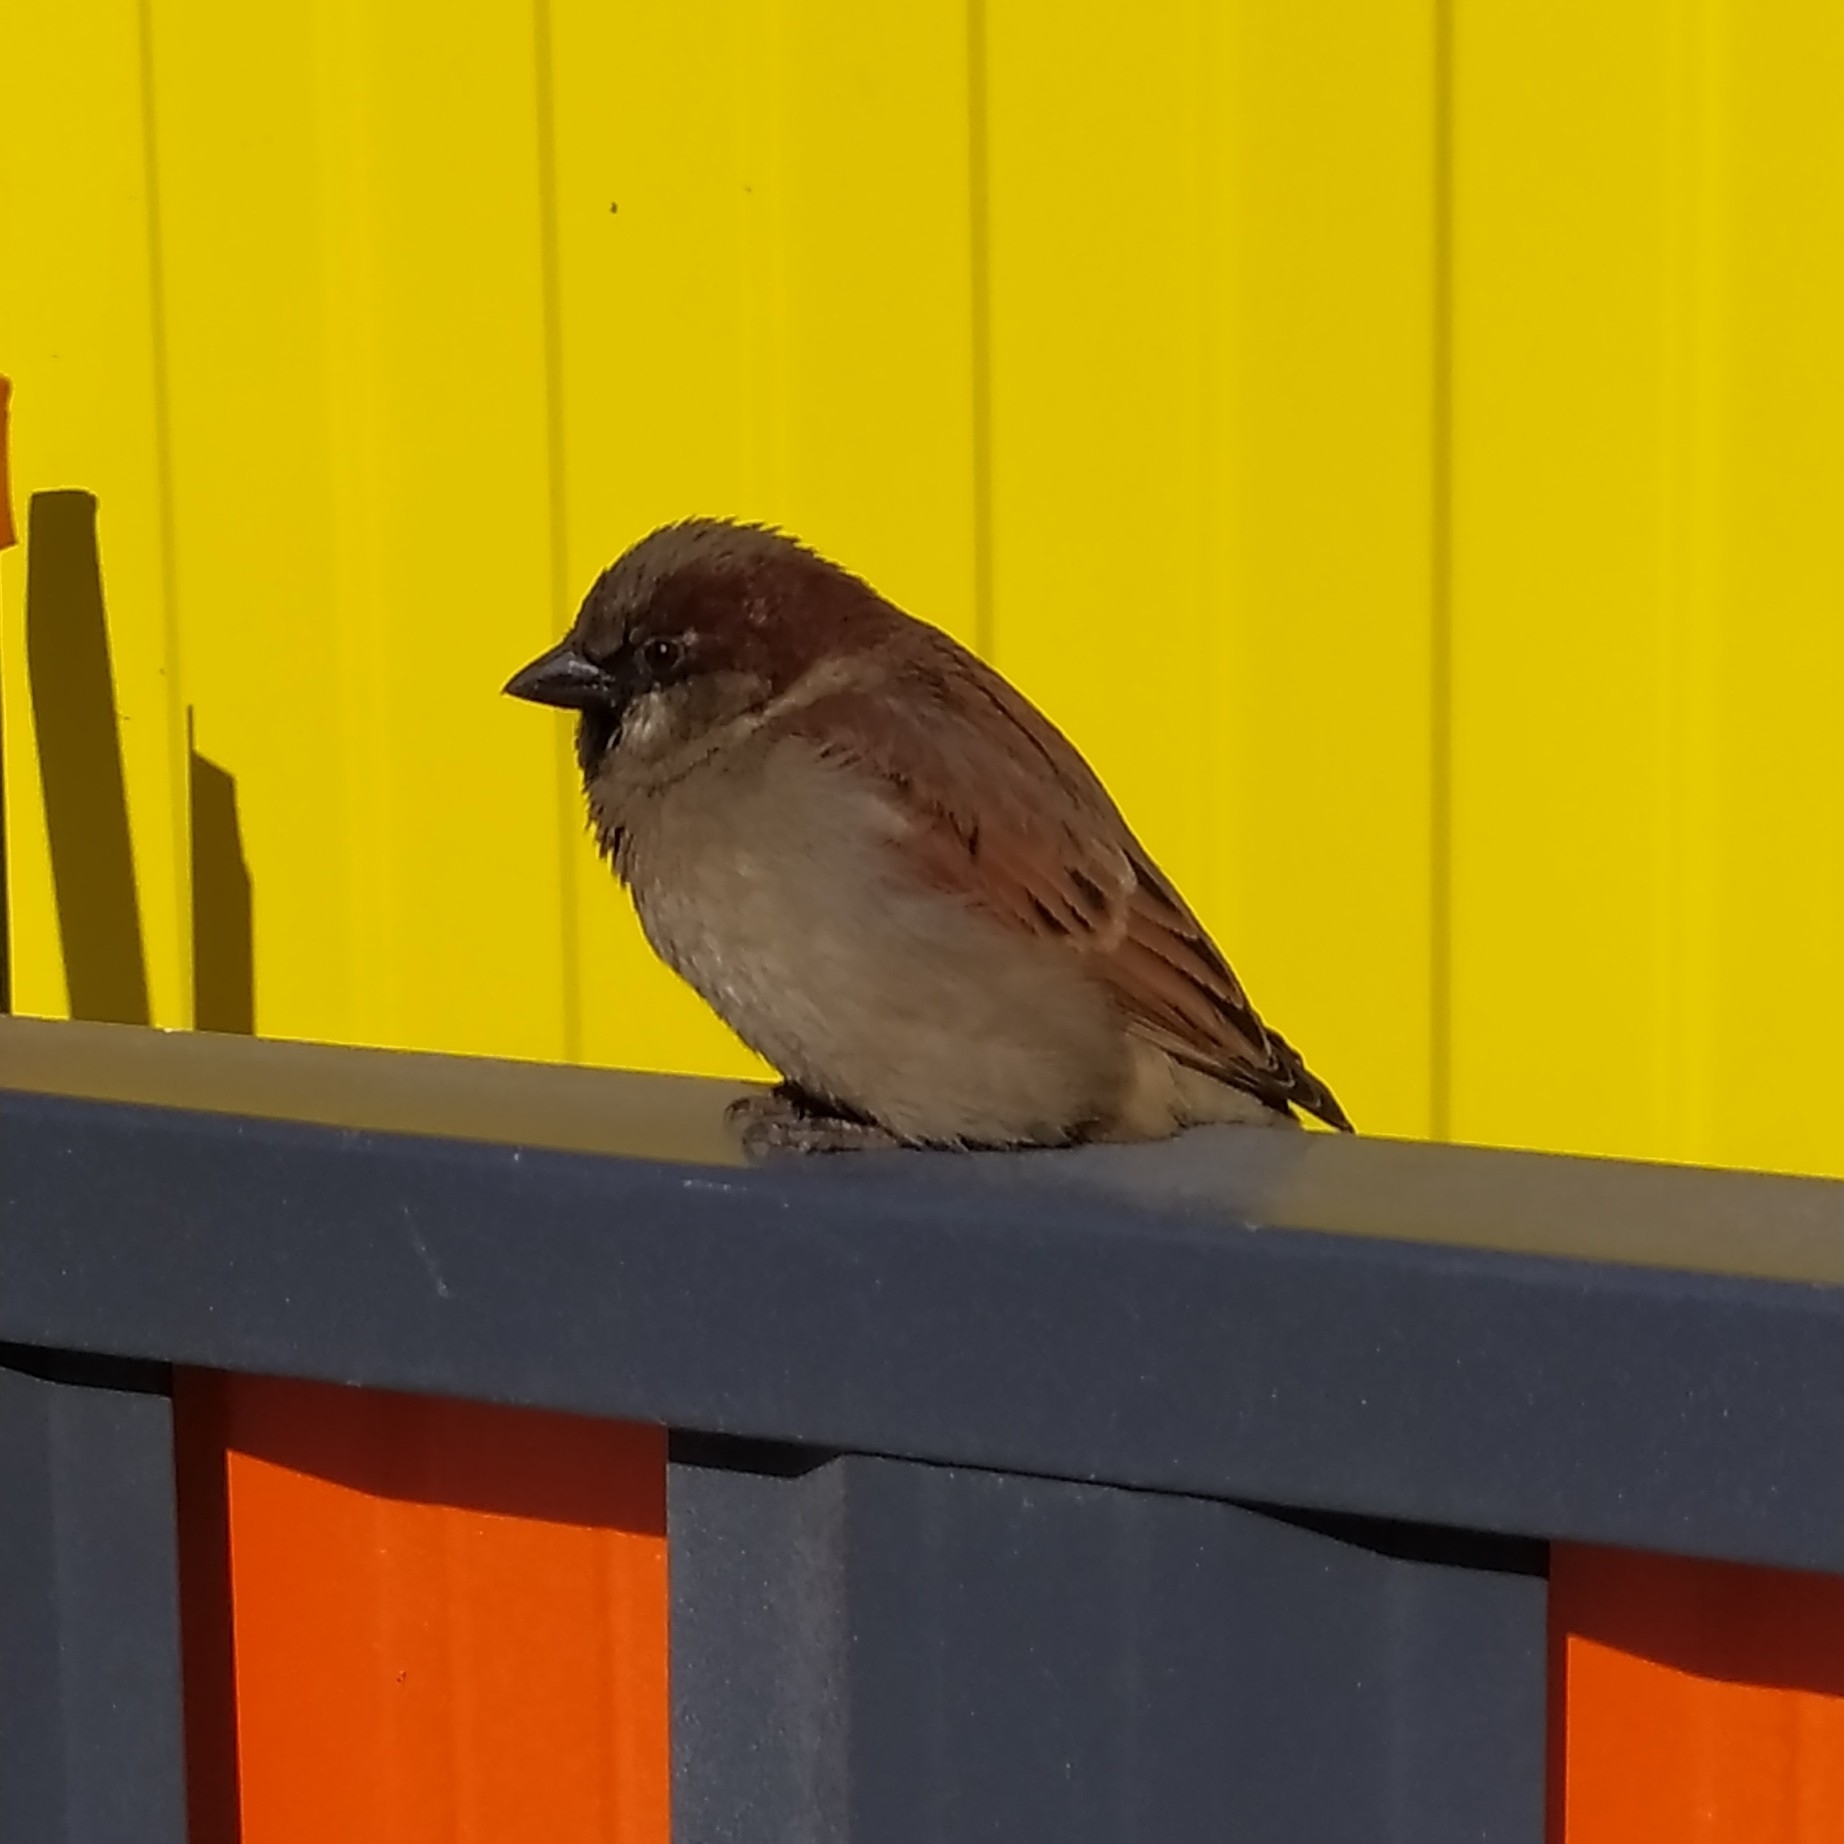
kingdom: Animalia
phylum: Chordata
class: Aves
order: Passeriformes
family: Passeridae
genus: Passer
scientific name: Passer domesticus
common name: House sparrow
